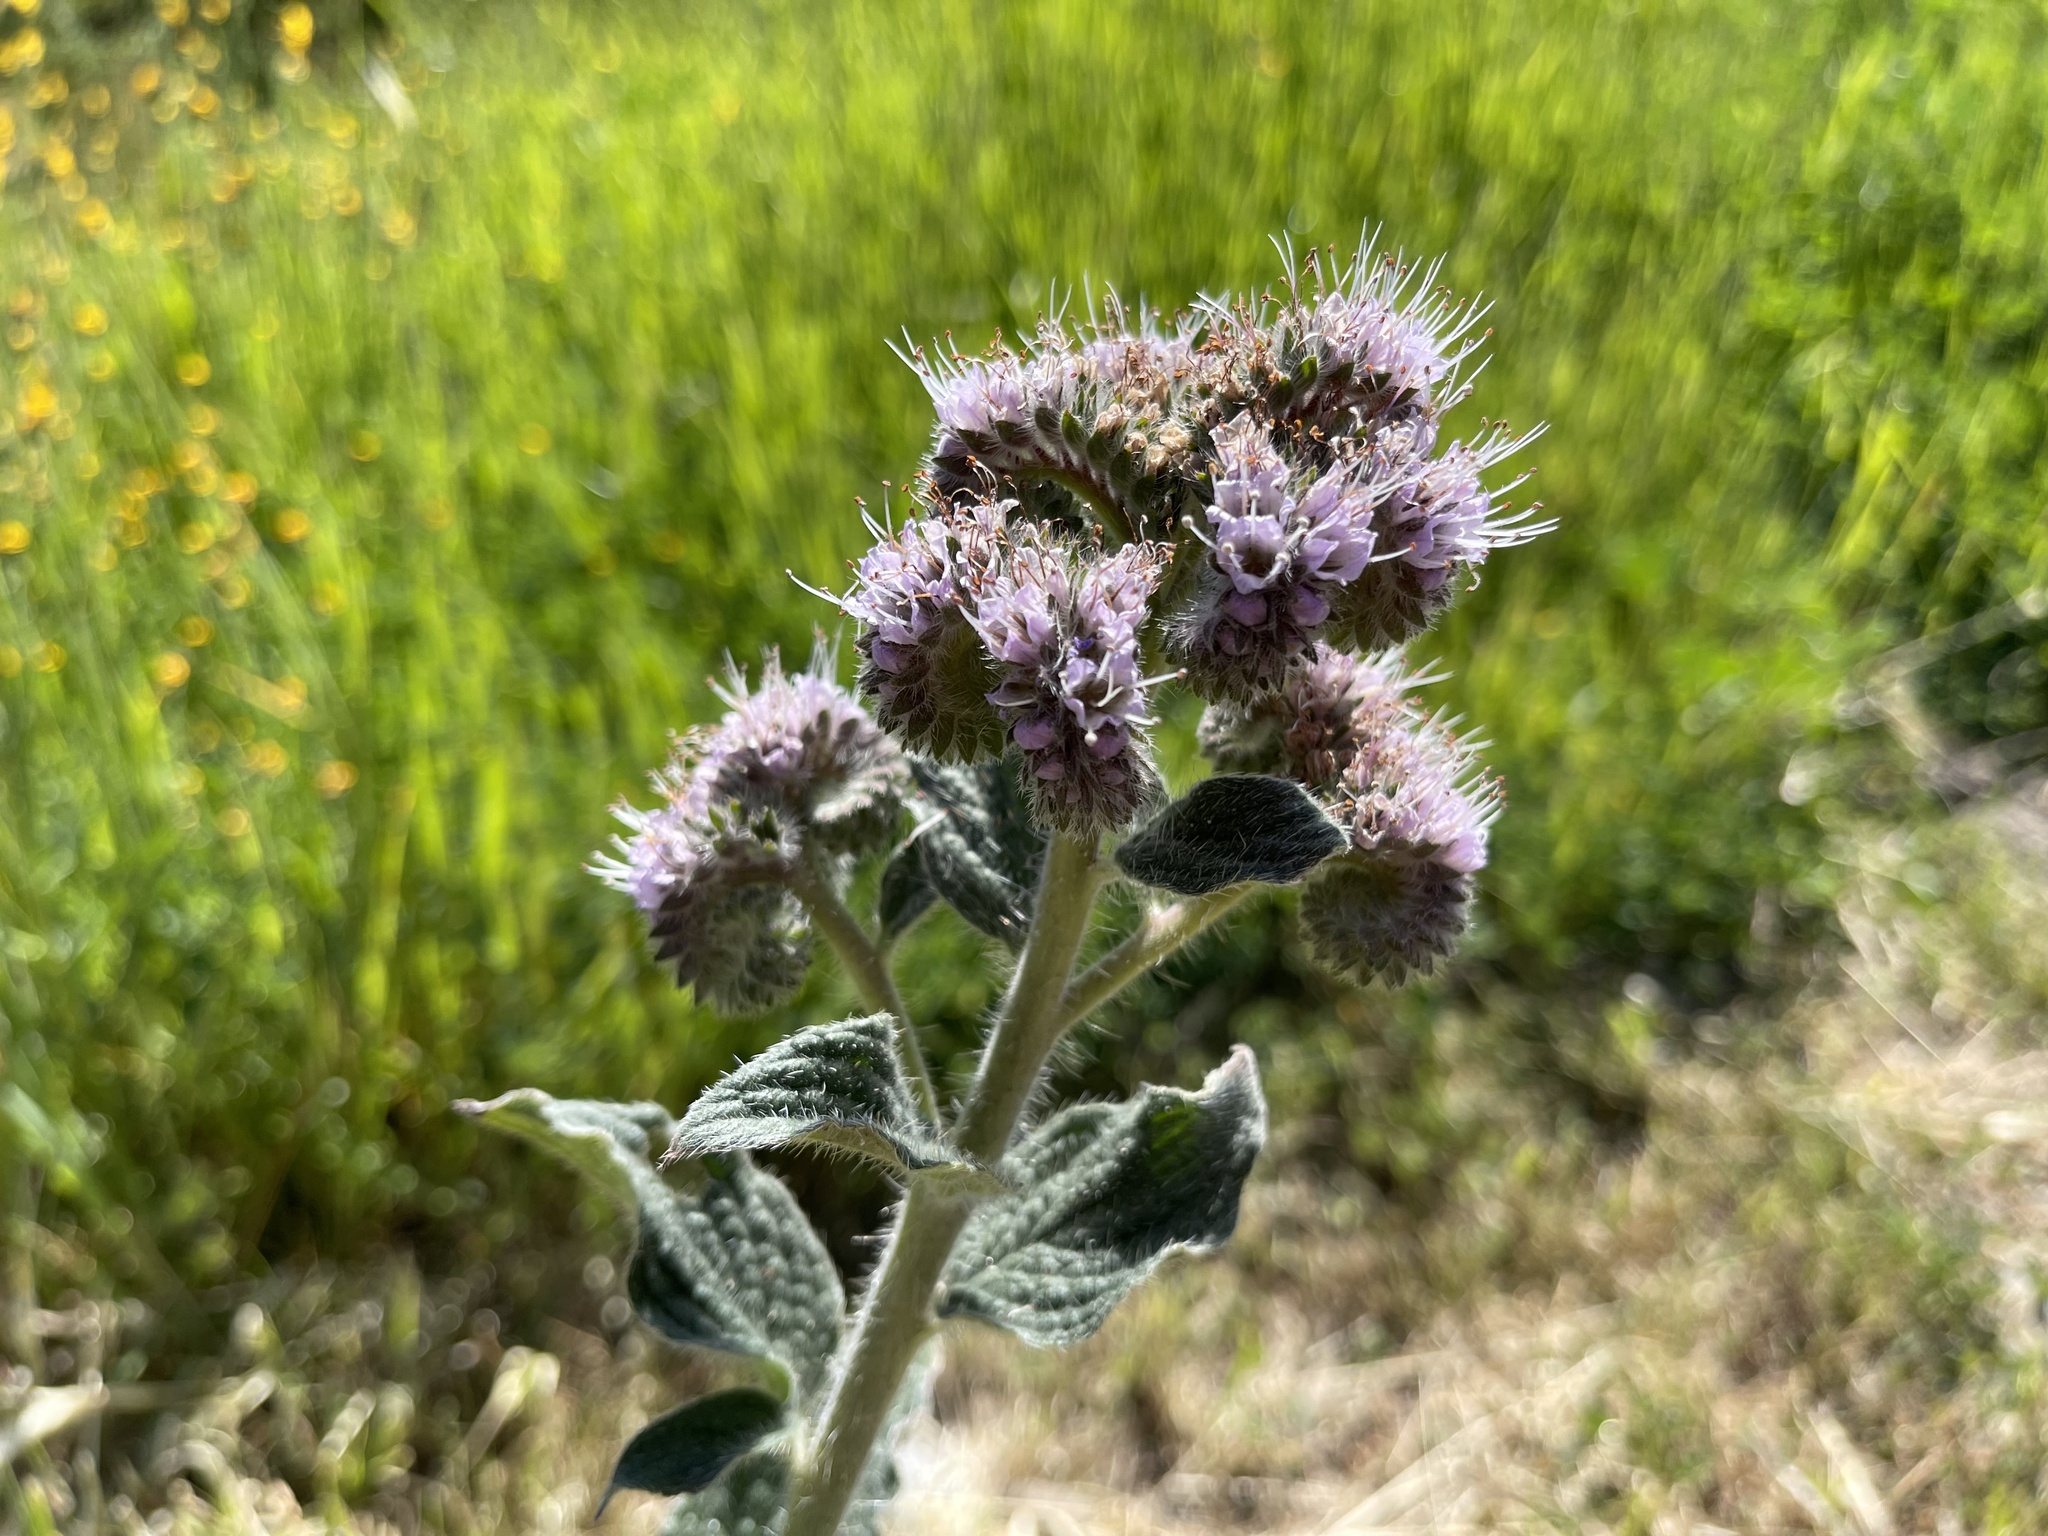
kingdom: Plantae
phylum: Tracheophyta
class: Magnoliopsida
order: Boraginales
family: Hydrophyllaceae
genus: Phacelia
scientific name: Phacelia californica
